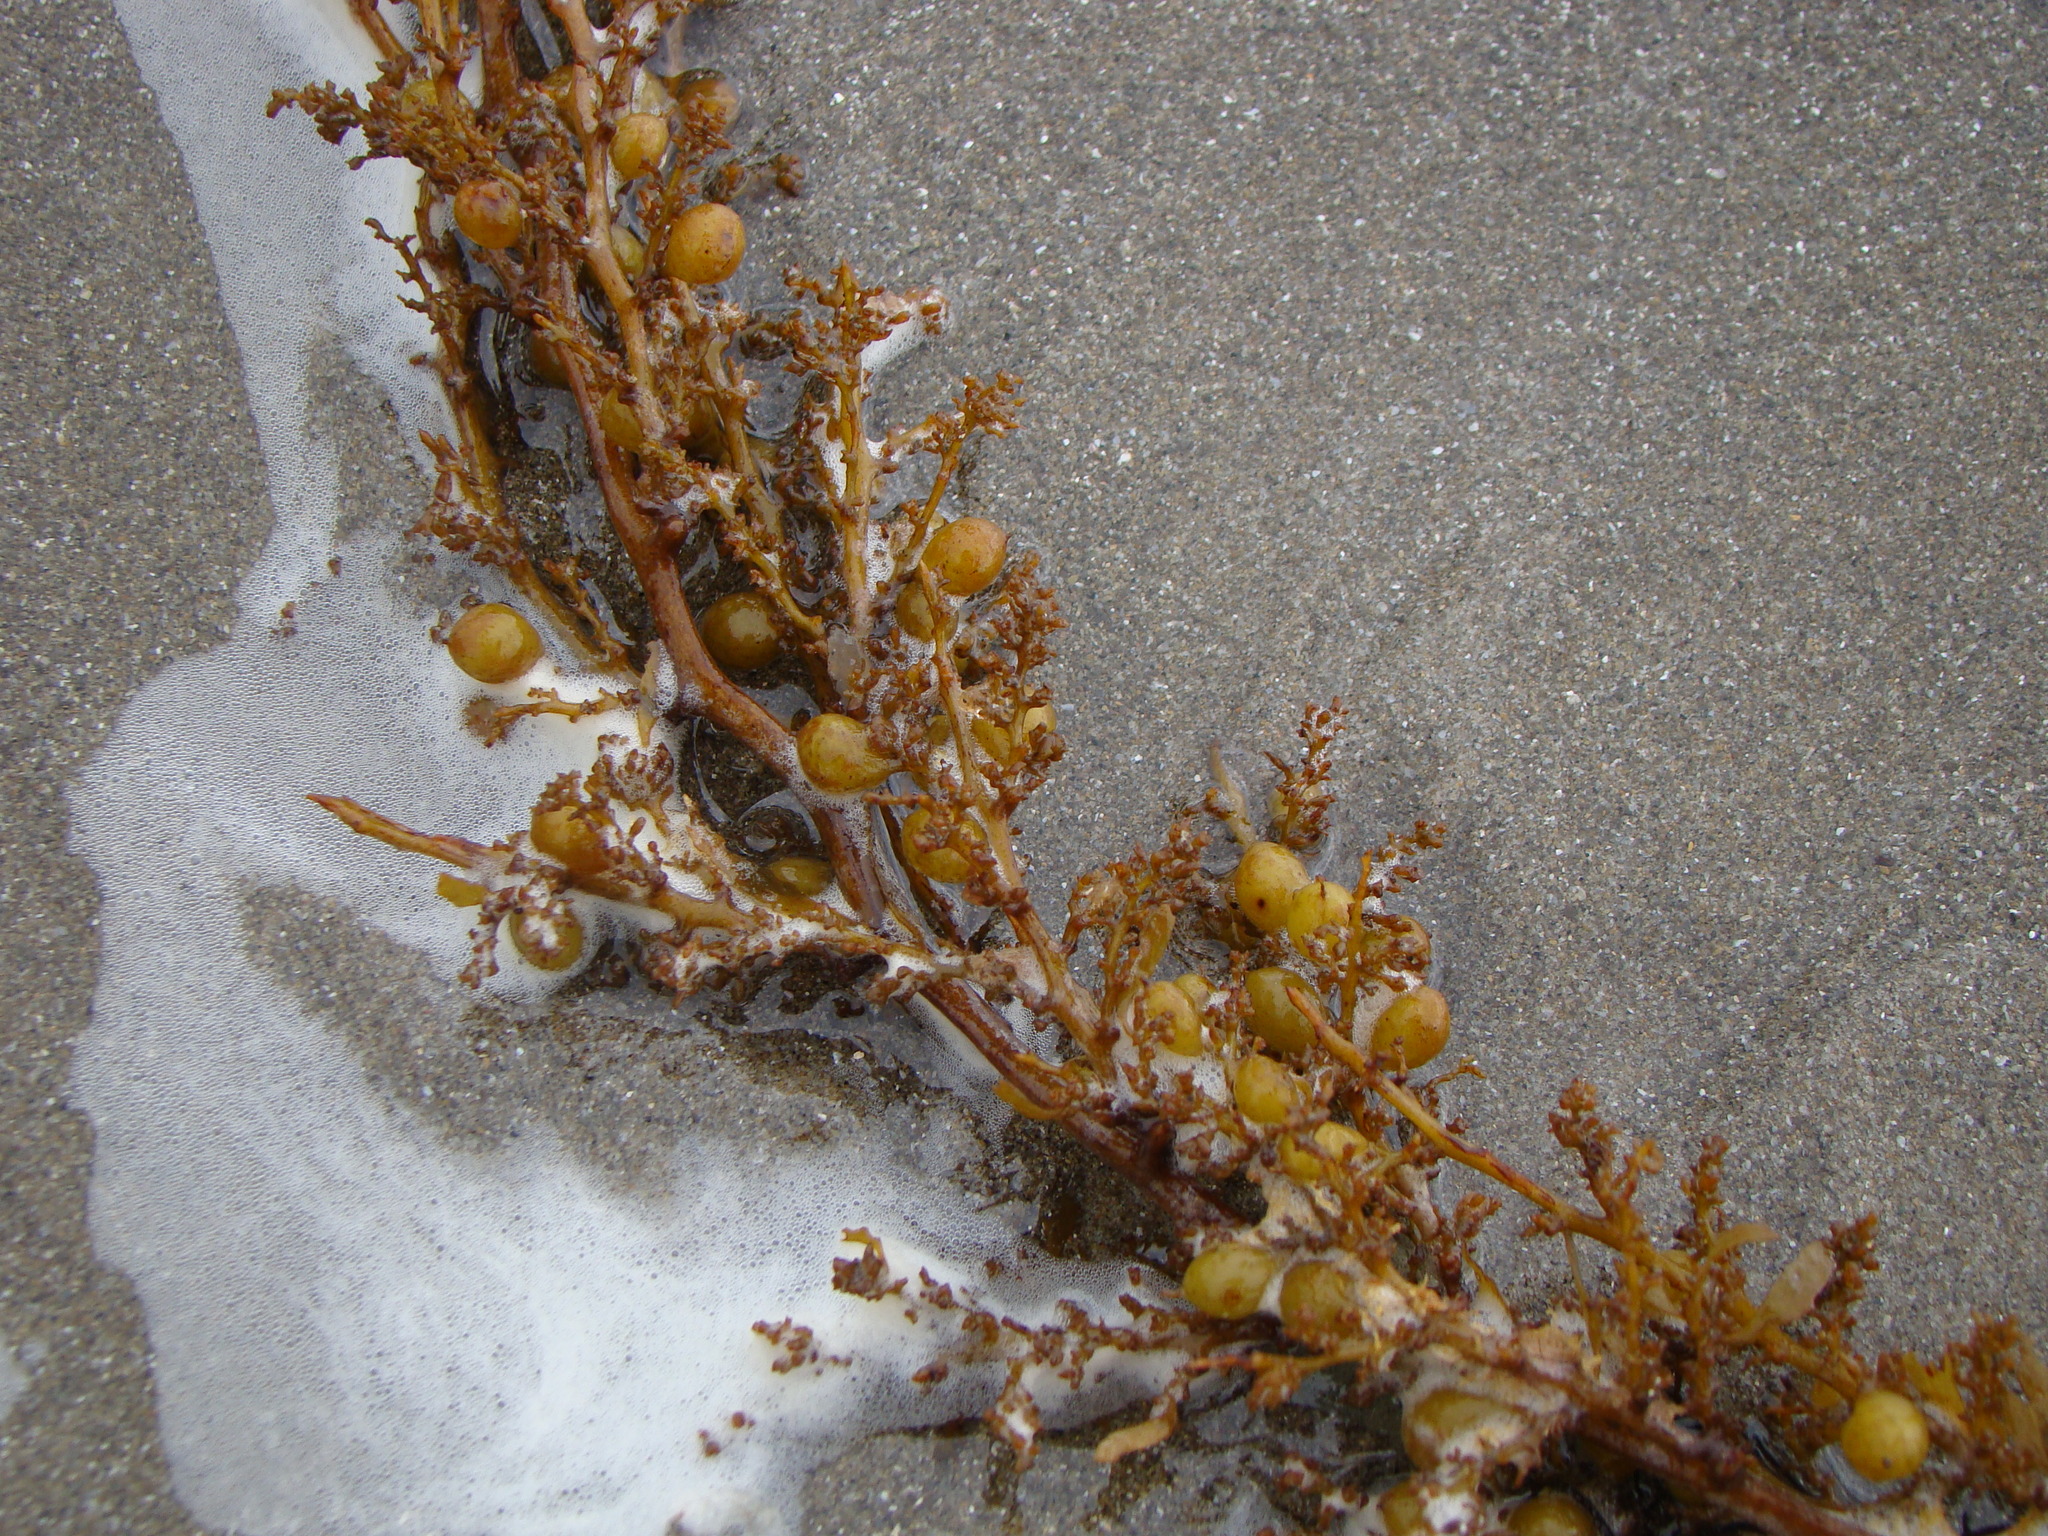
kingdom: Chromista
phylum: Ochrophyta
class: Phaeophyceae
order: Fucales
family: Sargassaceae
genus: Sargassum
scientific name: Sargassum sinclairii
